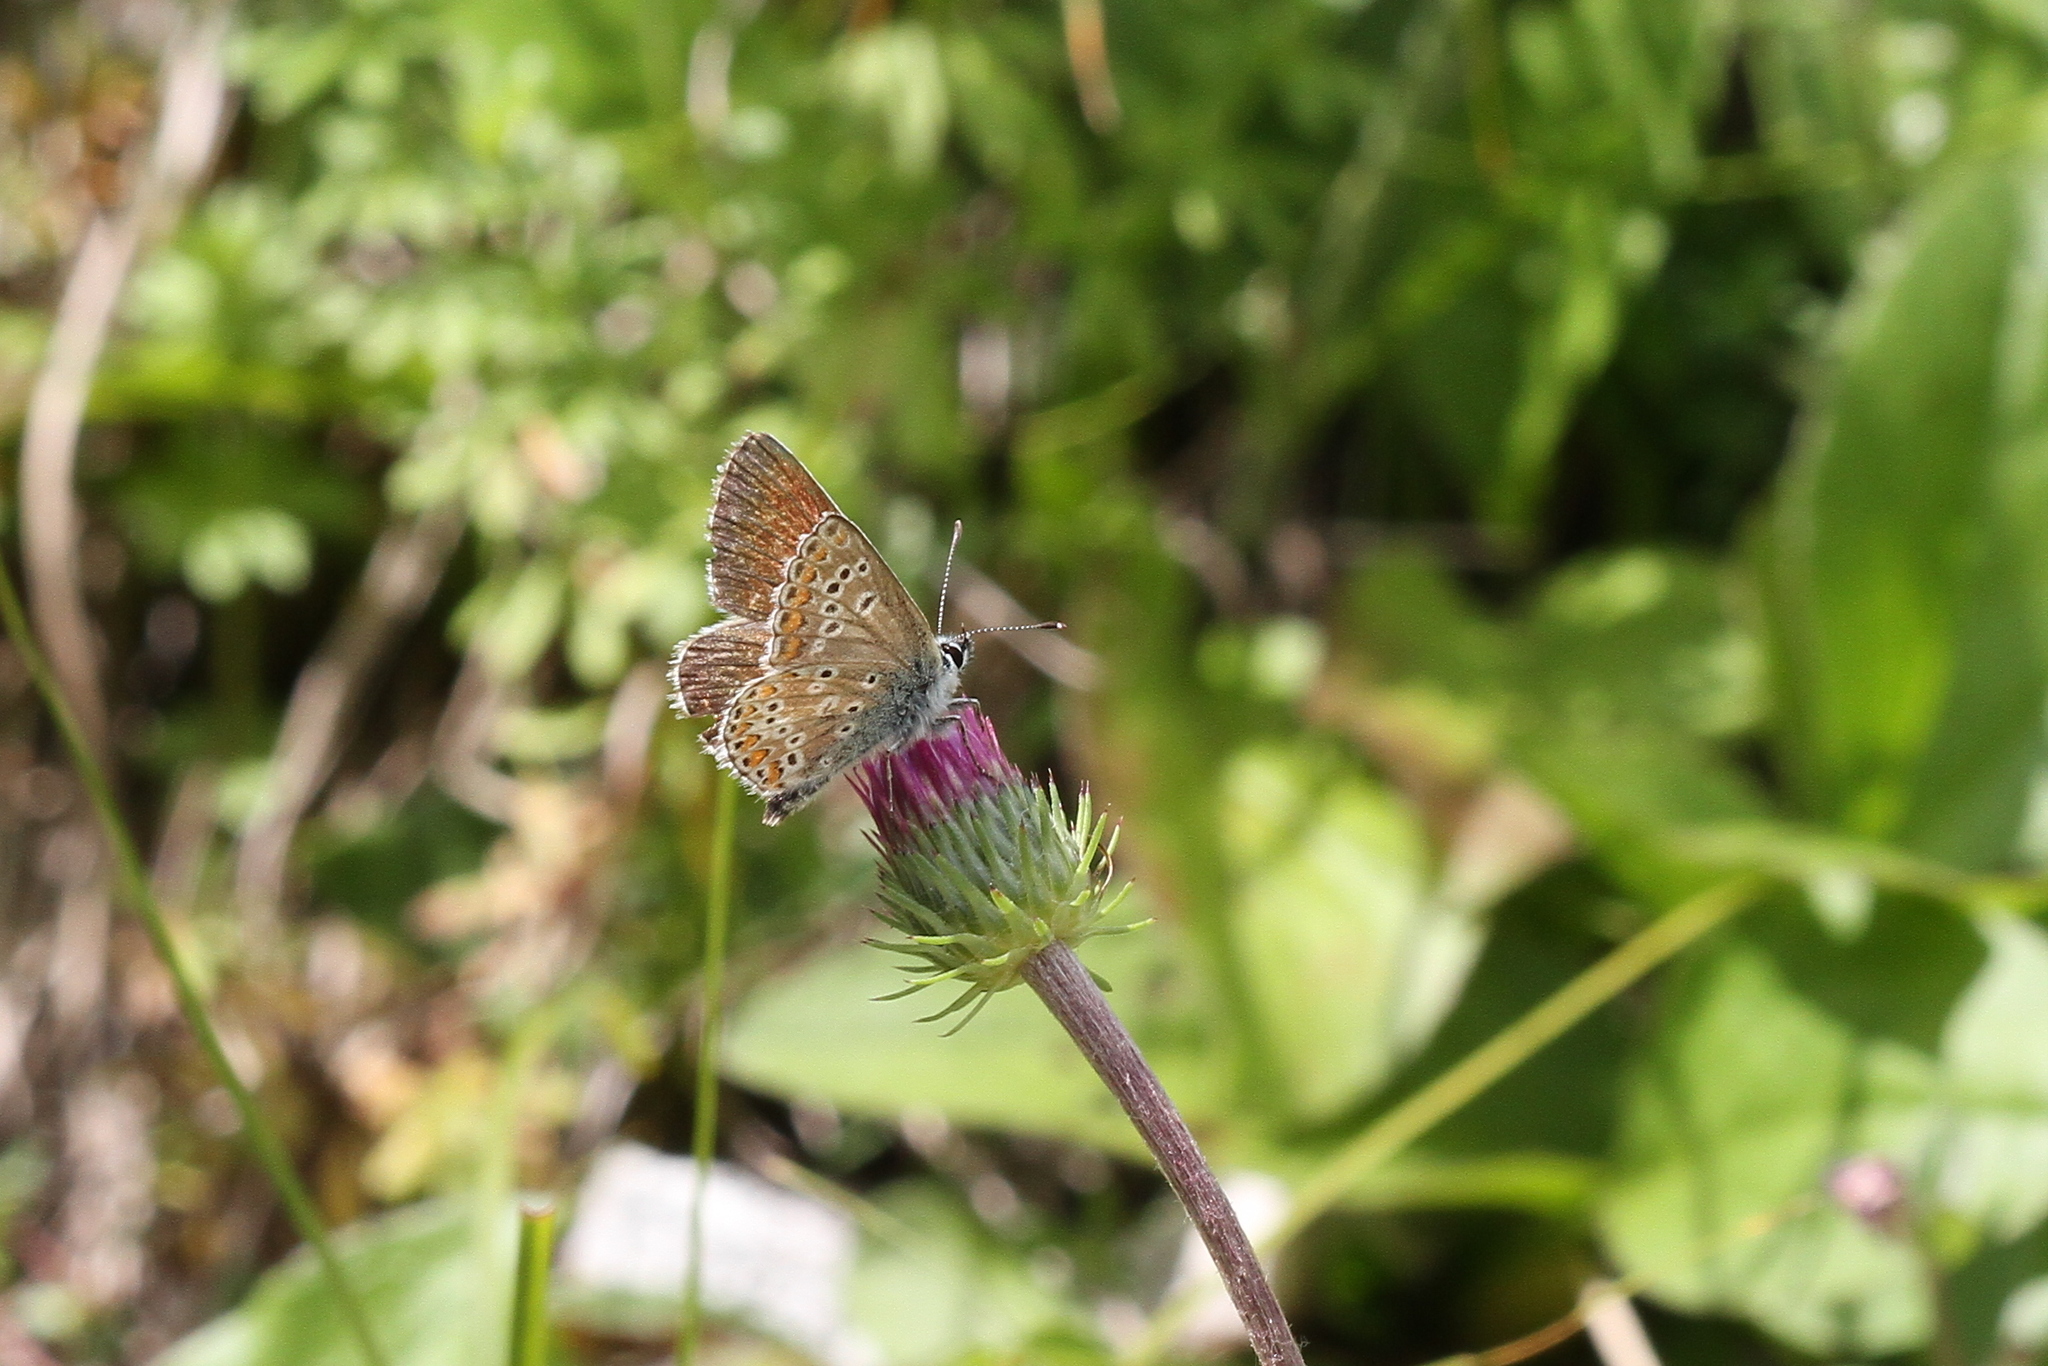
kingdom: Animalia
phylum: Arthropoda
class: Insecta
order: Lepidoptera
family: Lycaenidae
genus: Aricia
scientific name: Aricia artaxerxes
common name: Northern brown argus
